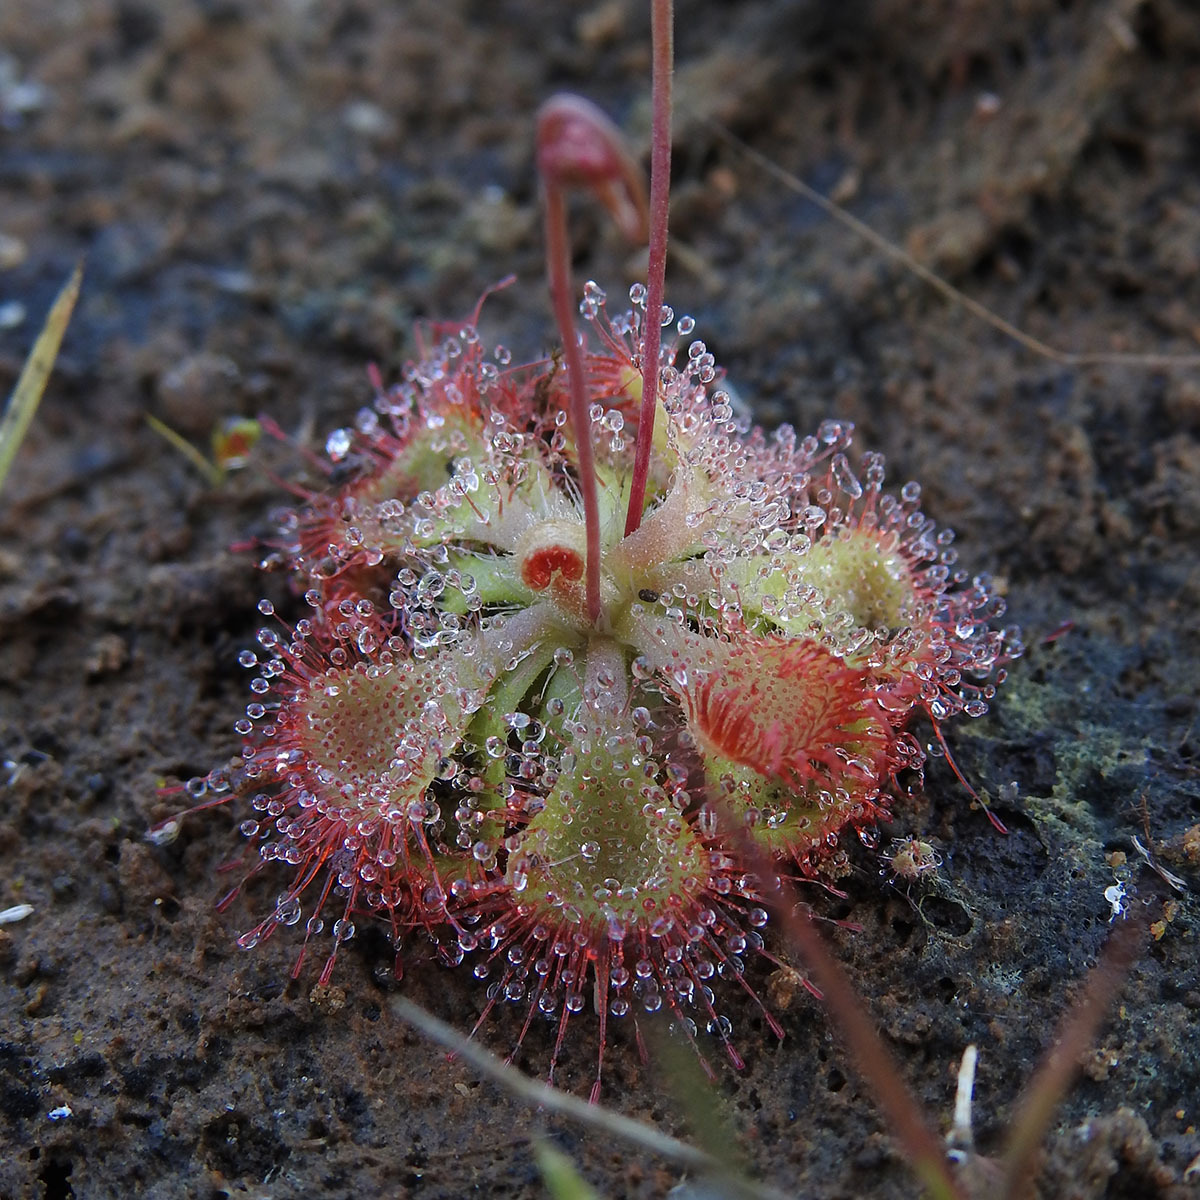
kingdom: Plantae
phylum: Tracheophyta
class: Magnoliopsida
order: Caryophyllales
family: Droseraceae
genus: Drosera
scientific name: Drosera spatulata
